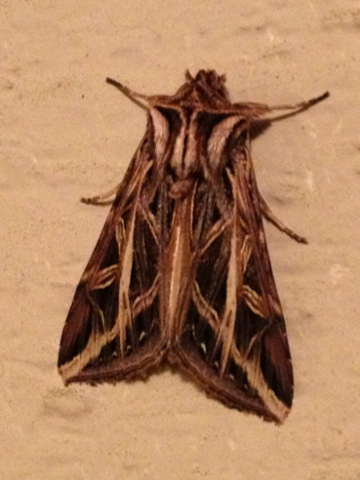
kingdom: Animalia
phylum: Arthropoda
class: Insecta
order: Lepidoptera
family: Noctuidae
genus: Dargida
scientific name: Dargida procinctus
